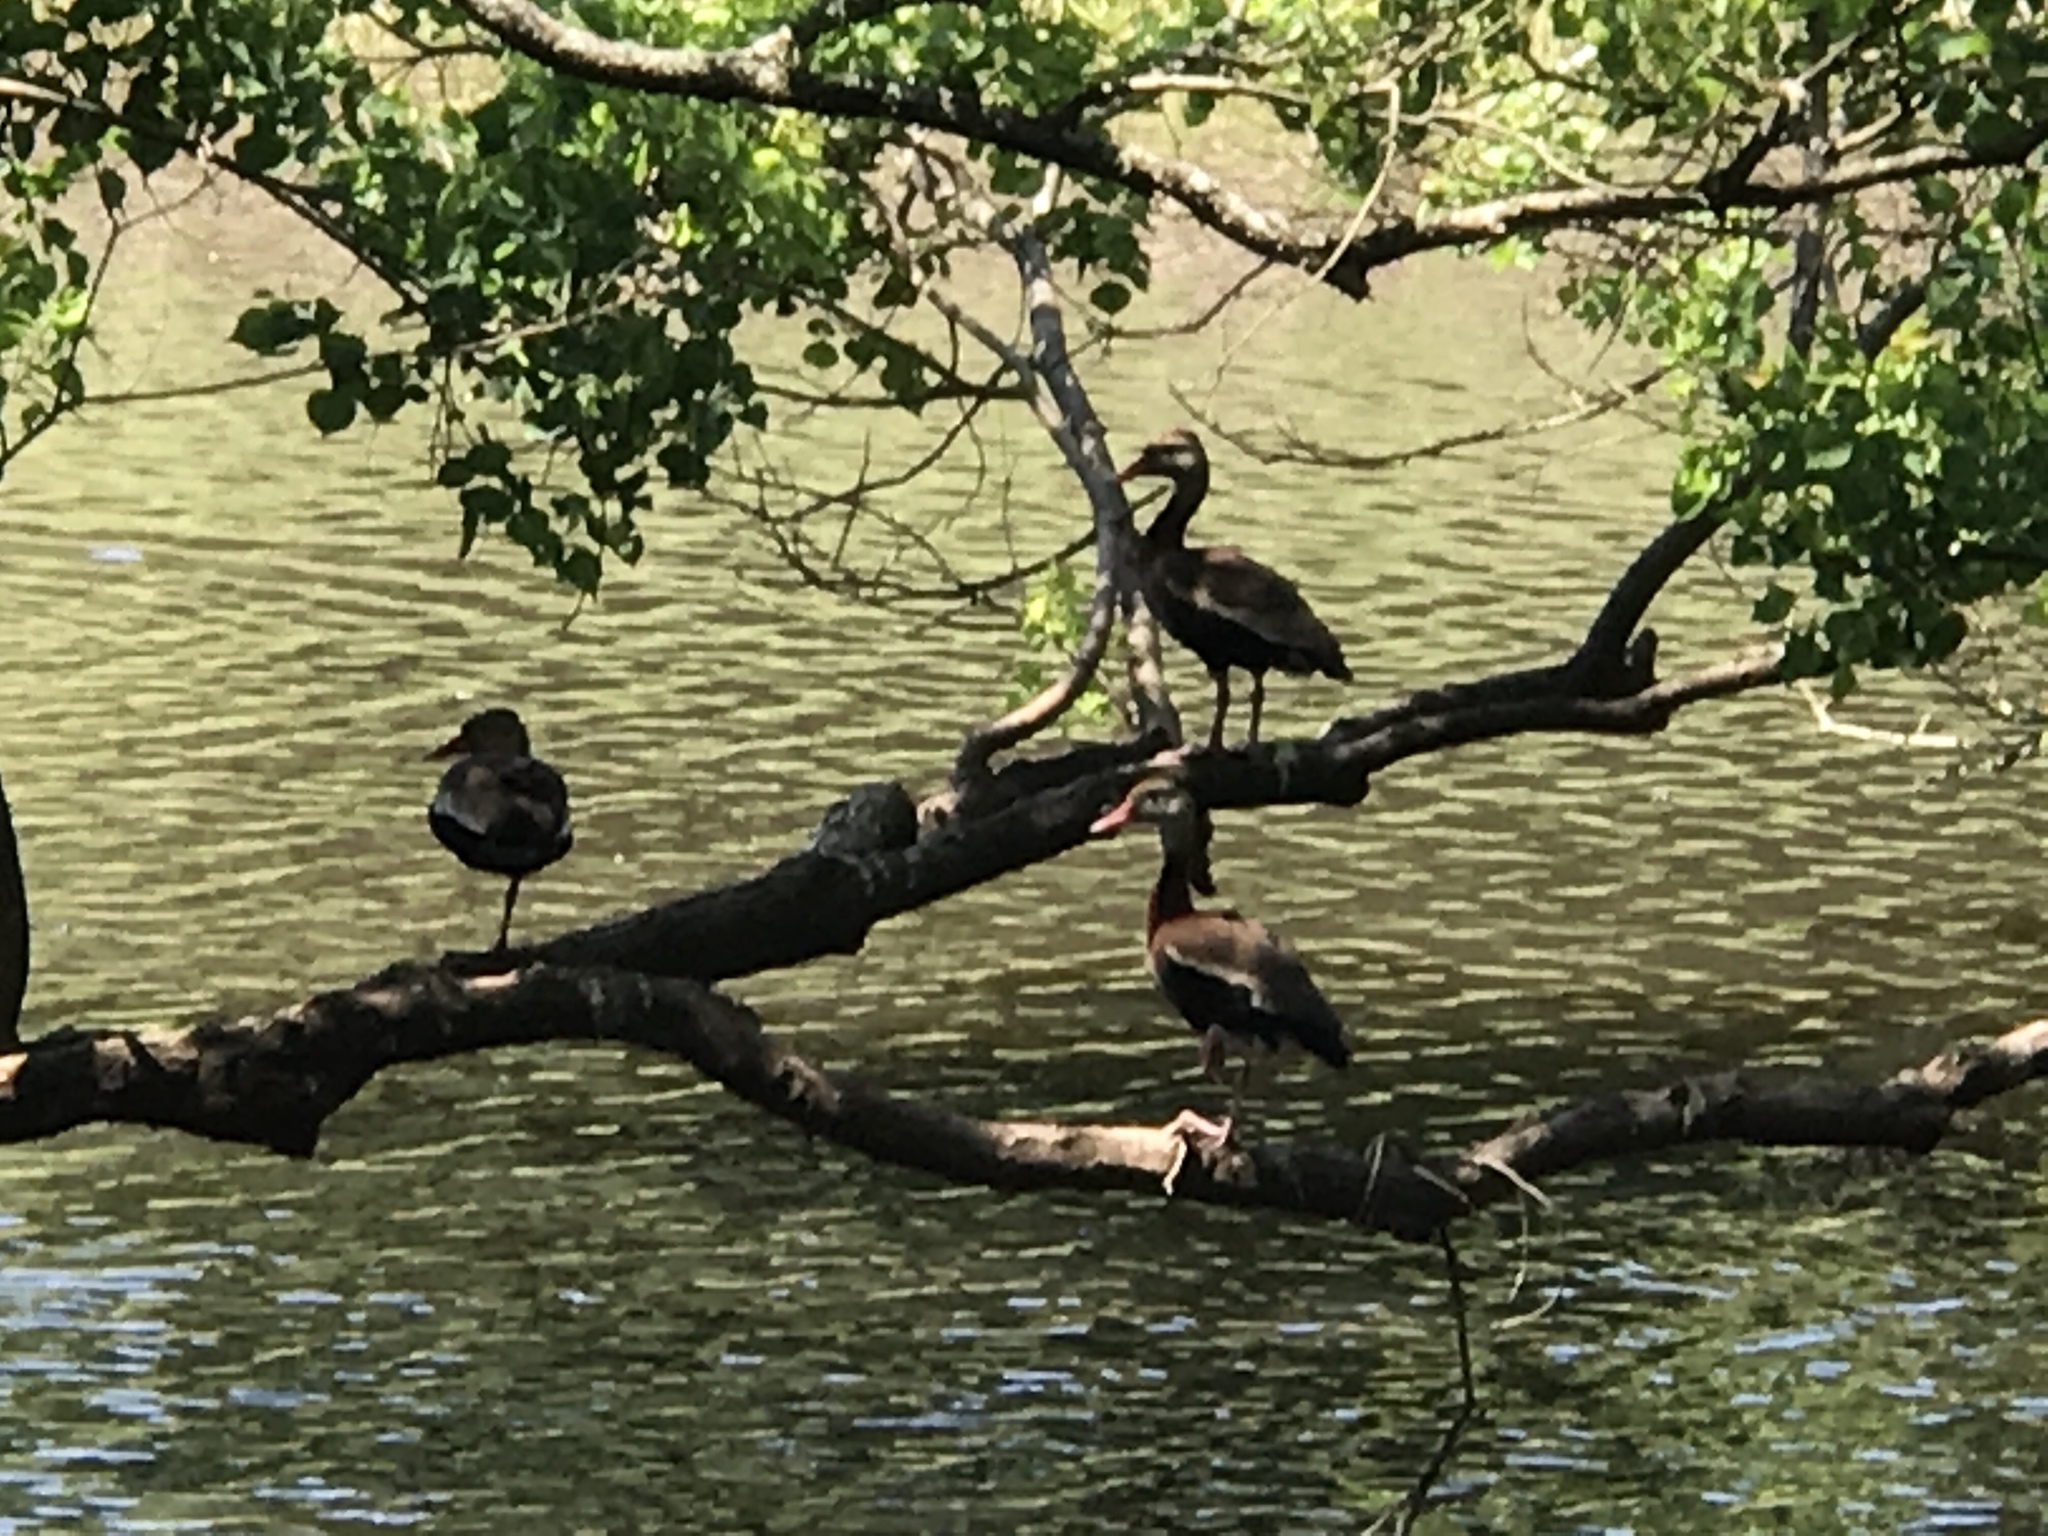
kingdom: Animalia
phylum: Chordata
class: Aves
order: Anseriformes
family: Anatidae
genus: Dendrocygna
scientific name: Dendrocygna autumnalis
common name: Black-bellied whistling duck
